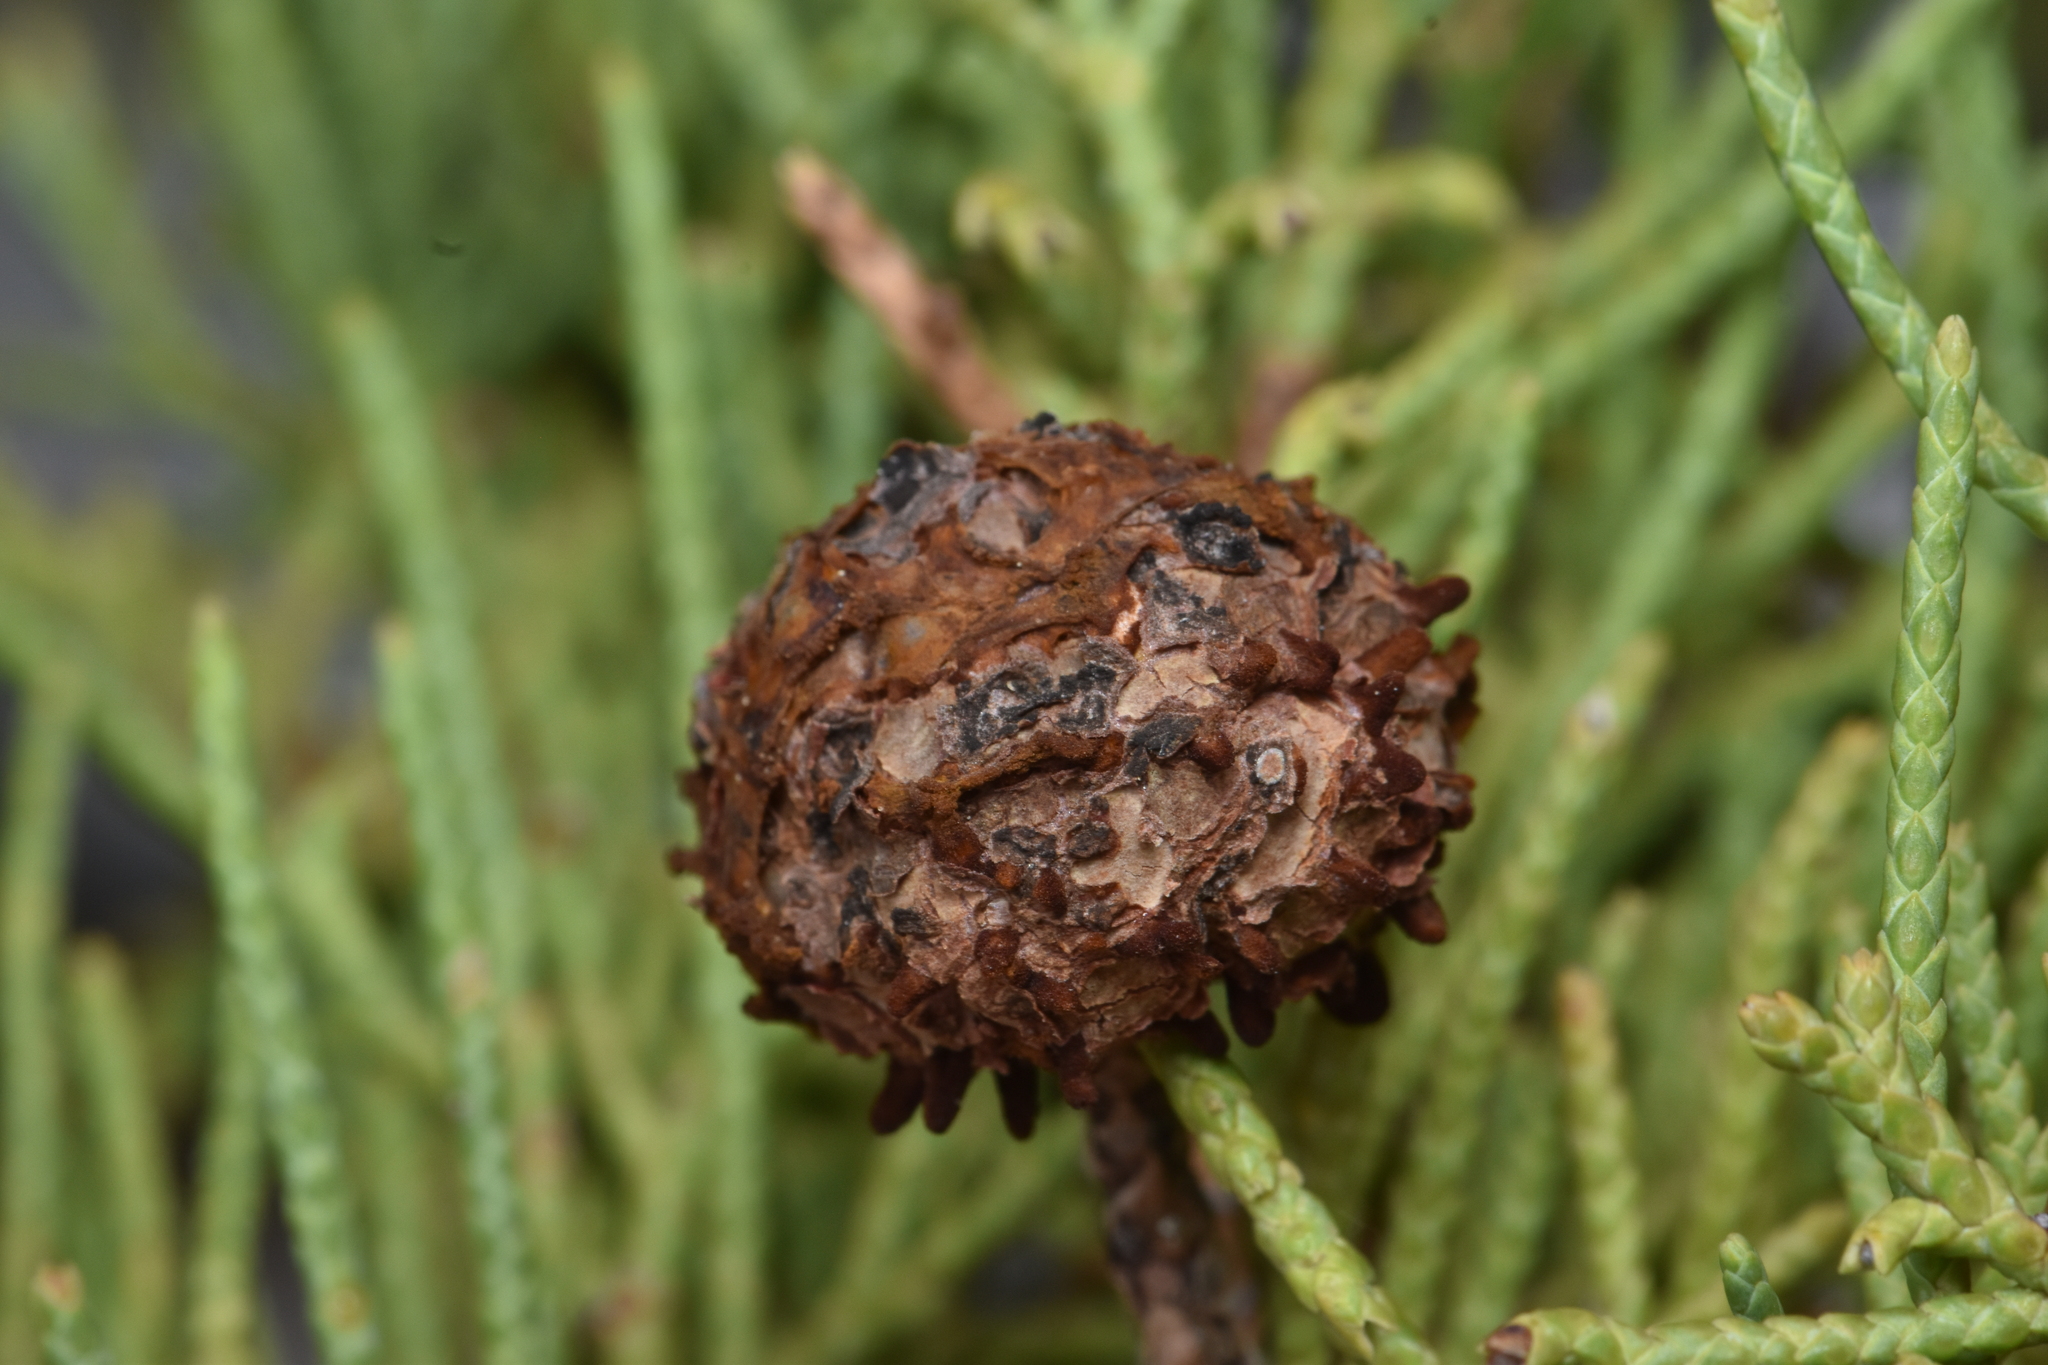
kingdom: Fungi
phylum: Basidiomycota
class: Pucciniomycetes
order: Pucciniales
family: Gymnosporangiaceae
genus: Gymnosporangium
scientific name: Gymnosporangium juniperi-virginianae
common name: Juniper-apple rust
